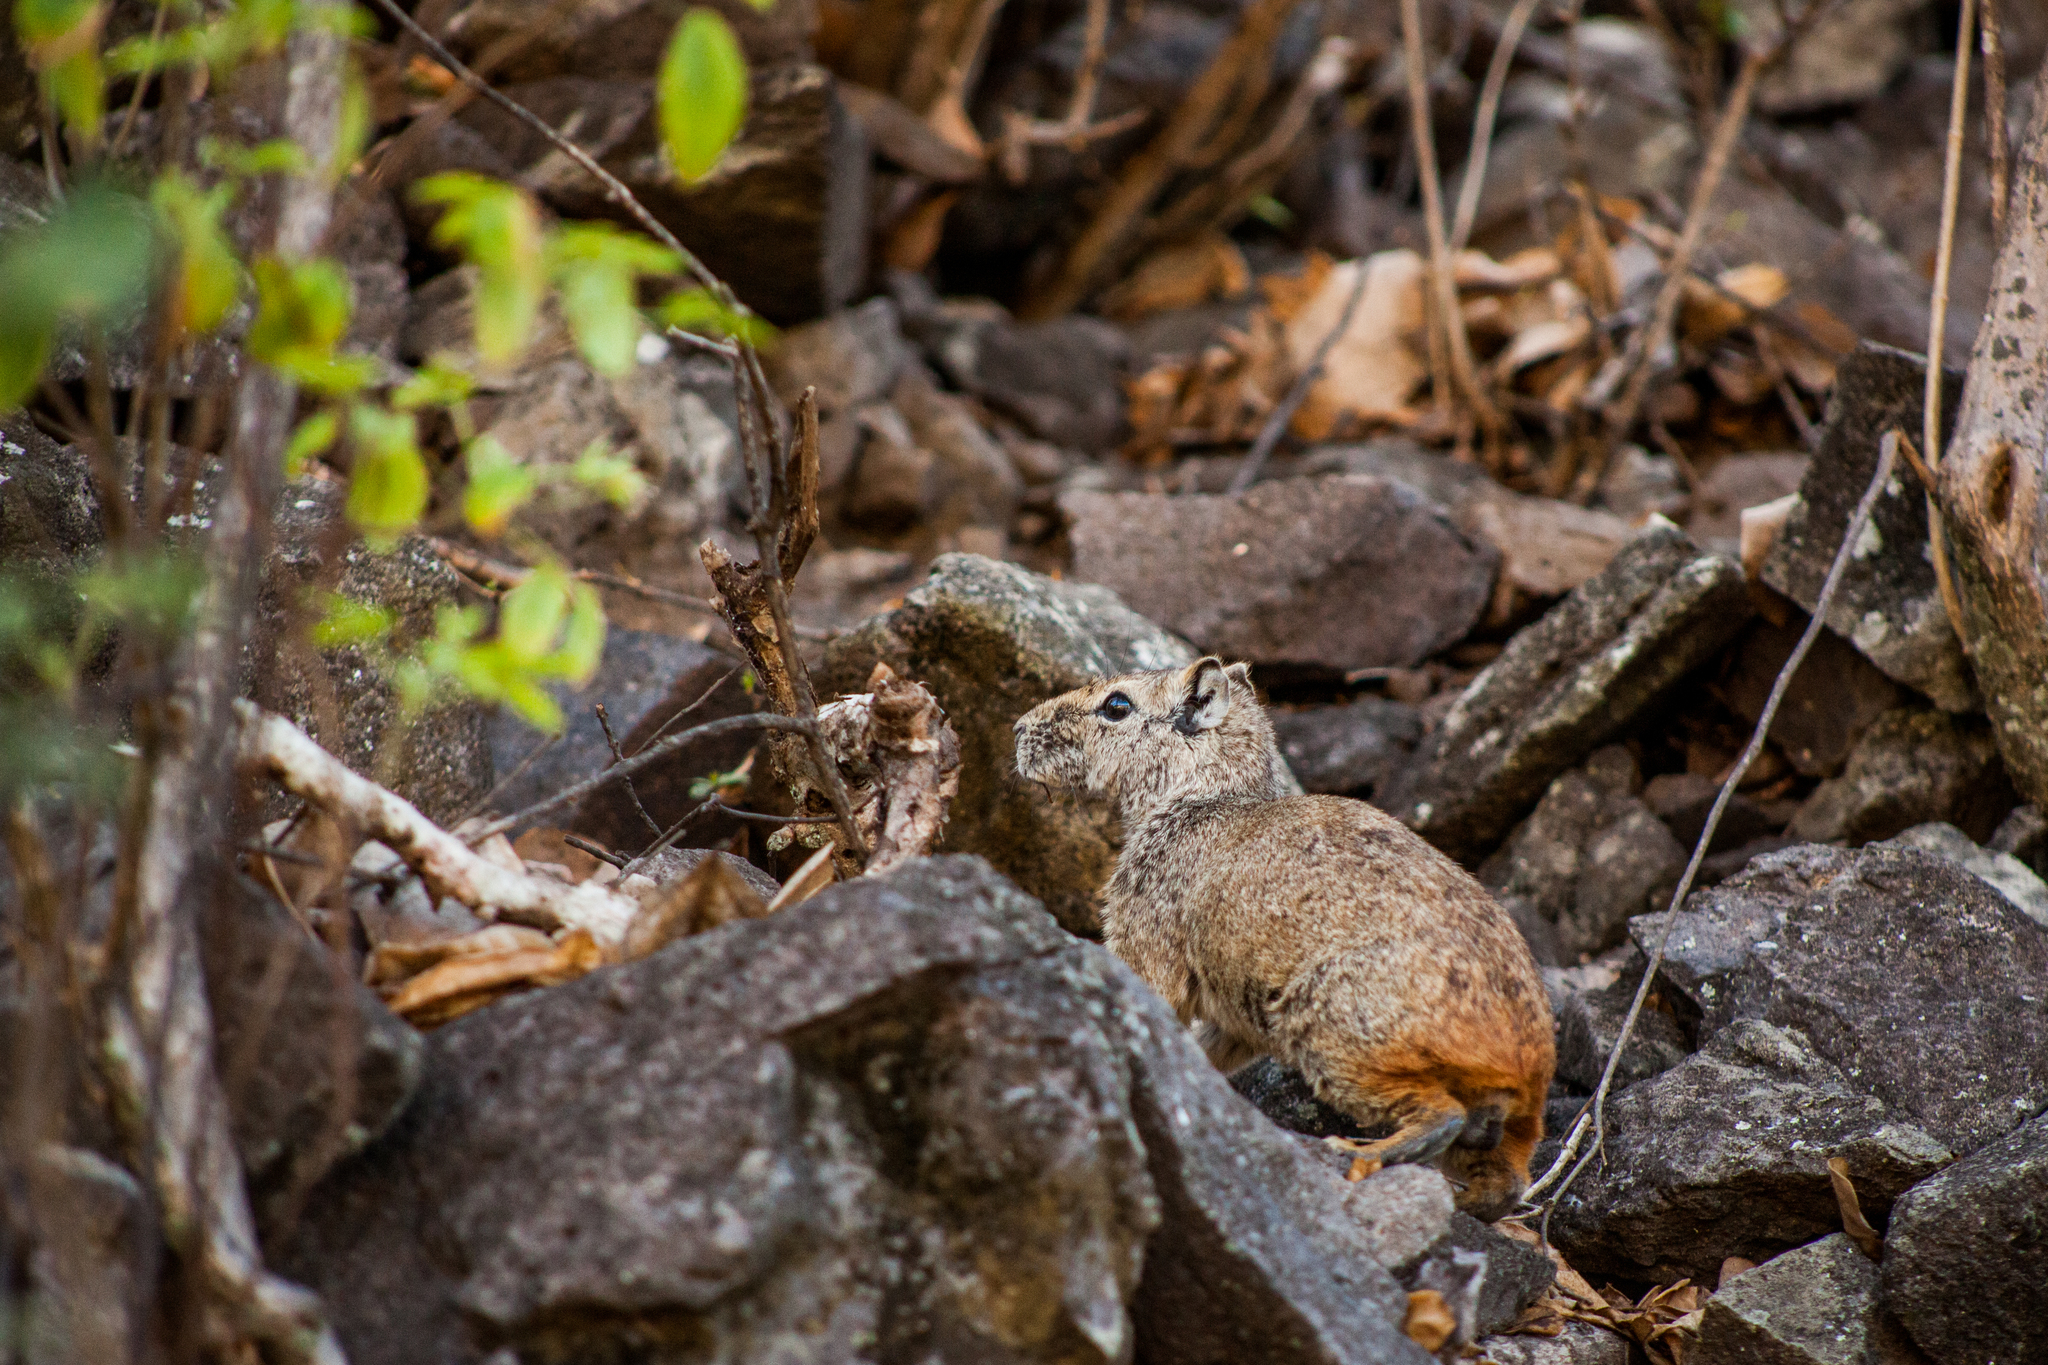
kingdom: Animalia
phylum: Chordata
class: Mammalia
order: Rodentia
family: Caviidae
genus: Kerodon
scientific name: Kerodon rupestris
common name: Rock cavy
